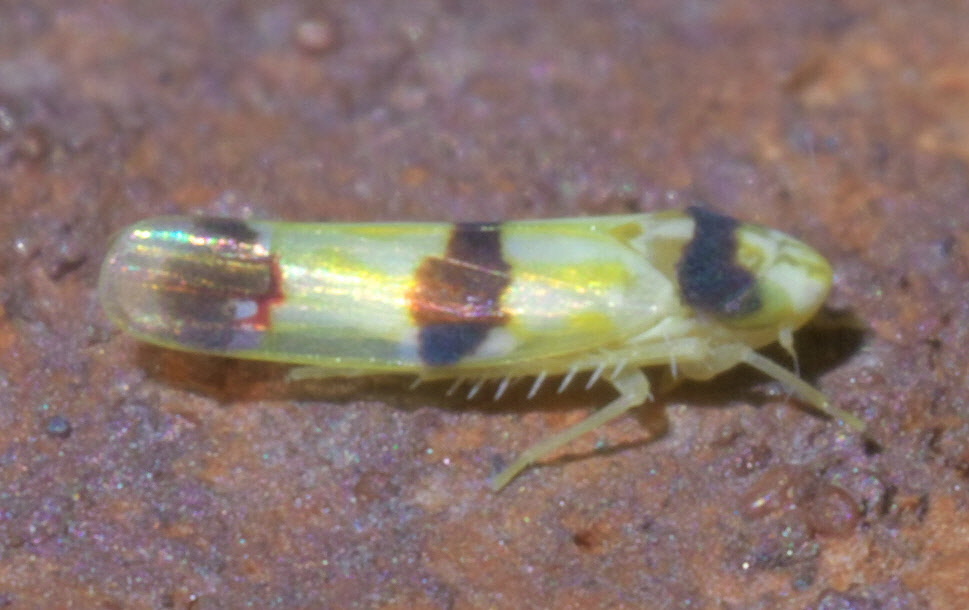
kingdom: Animalia
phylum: Arthropoda
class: Insecta
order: Hemiptera
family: Cicadellidae
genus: Erythroneura
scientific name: Erythroneura cymbium
